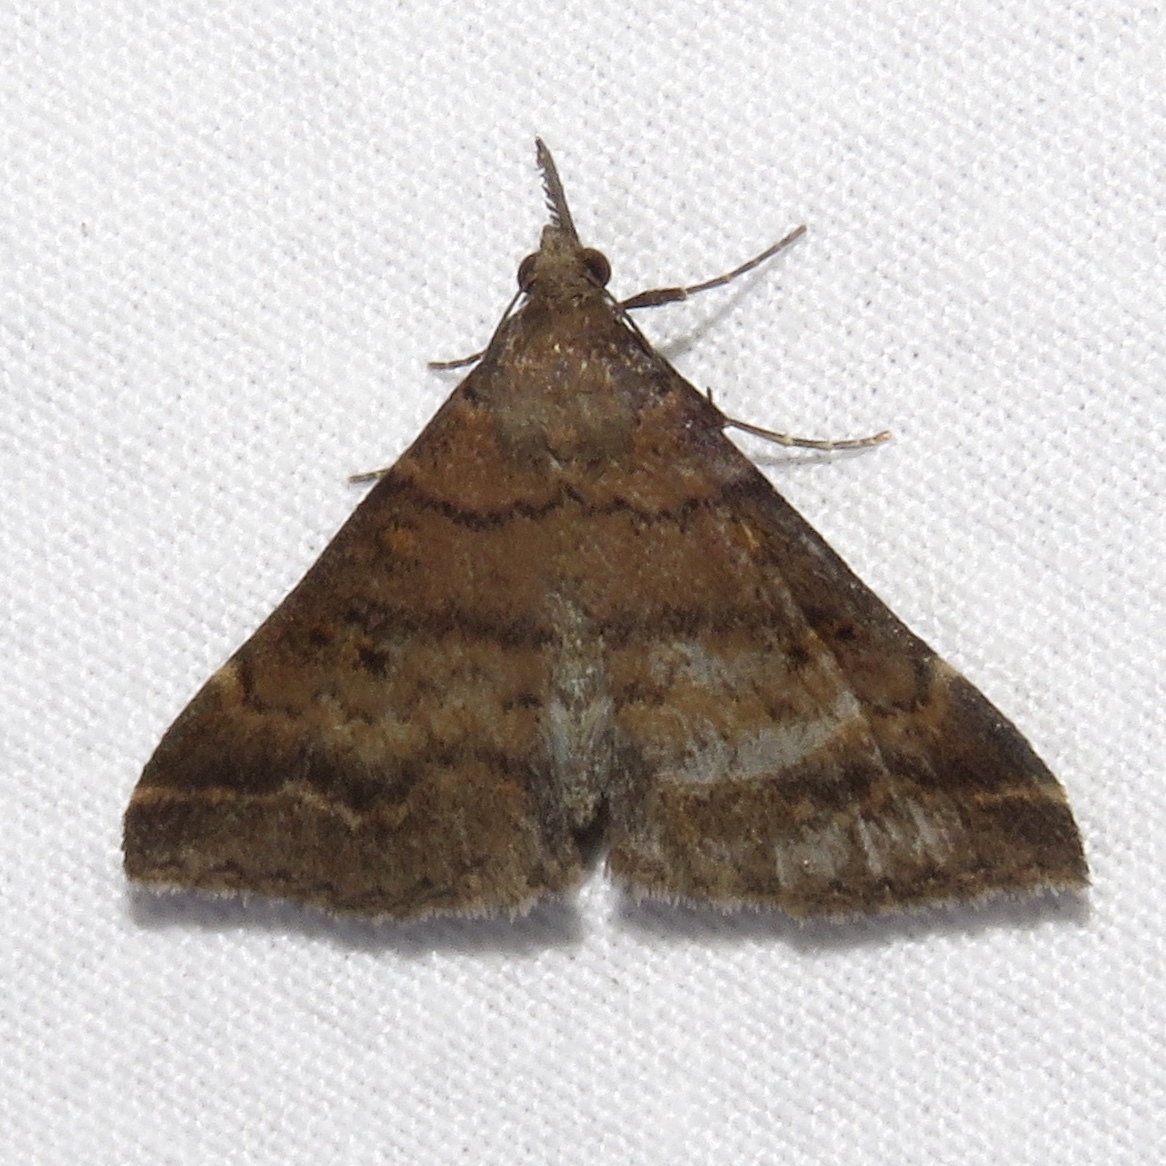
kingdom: Animalia
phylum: Arthropoda
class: Insecta
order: Lepidoptera
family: Erebidae
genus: Renia
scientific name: Renia factiosalis
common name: Sociable renia moth
